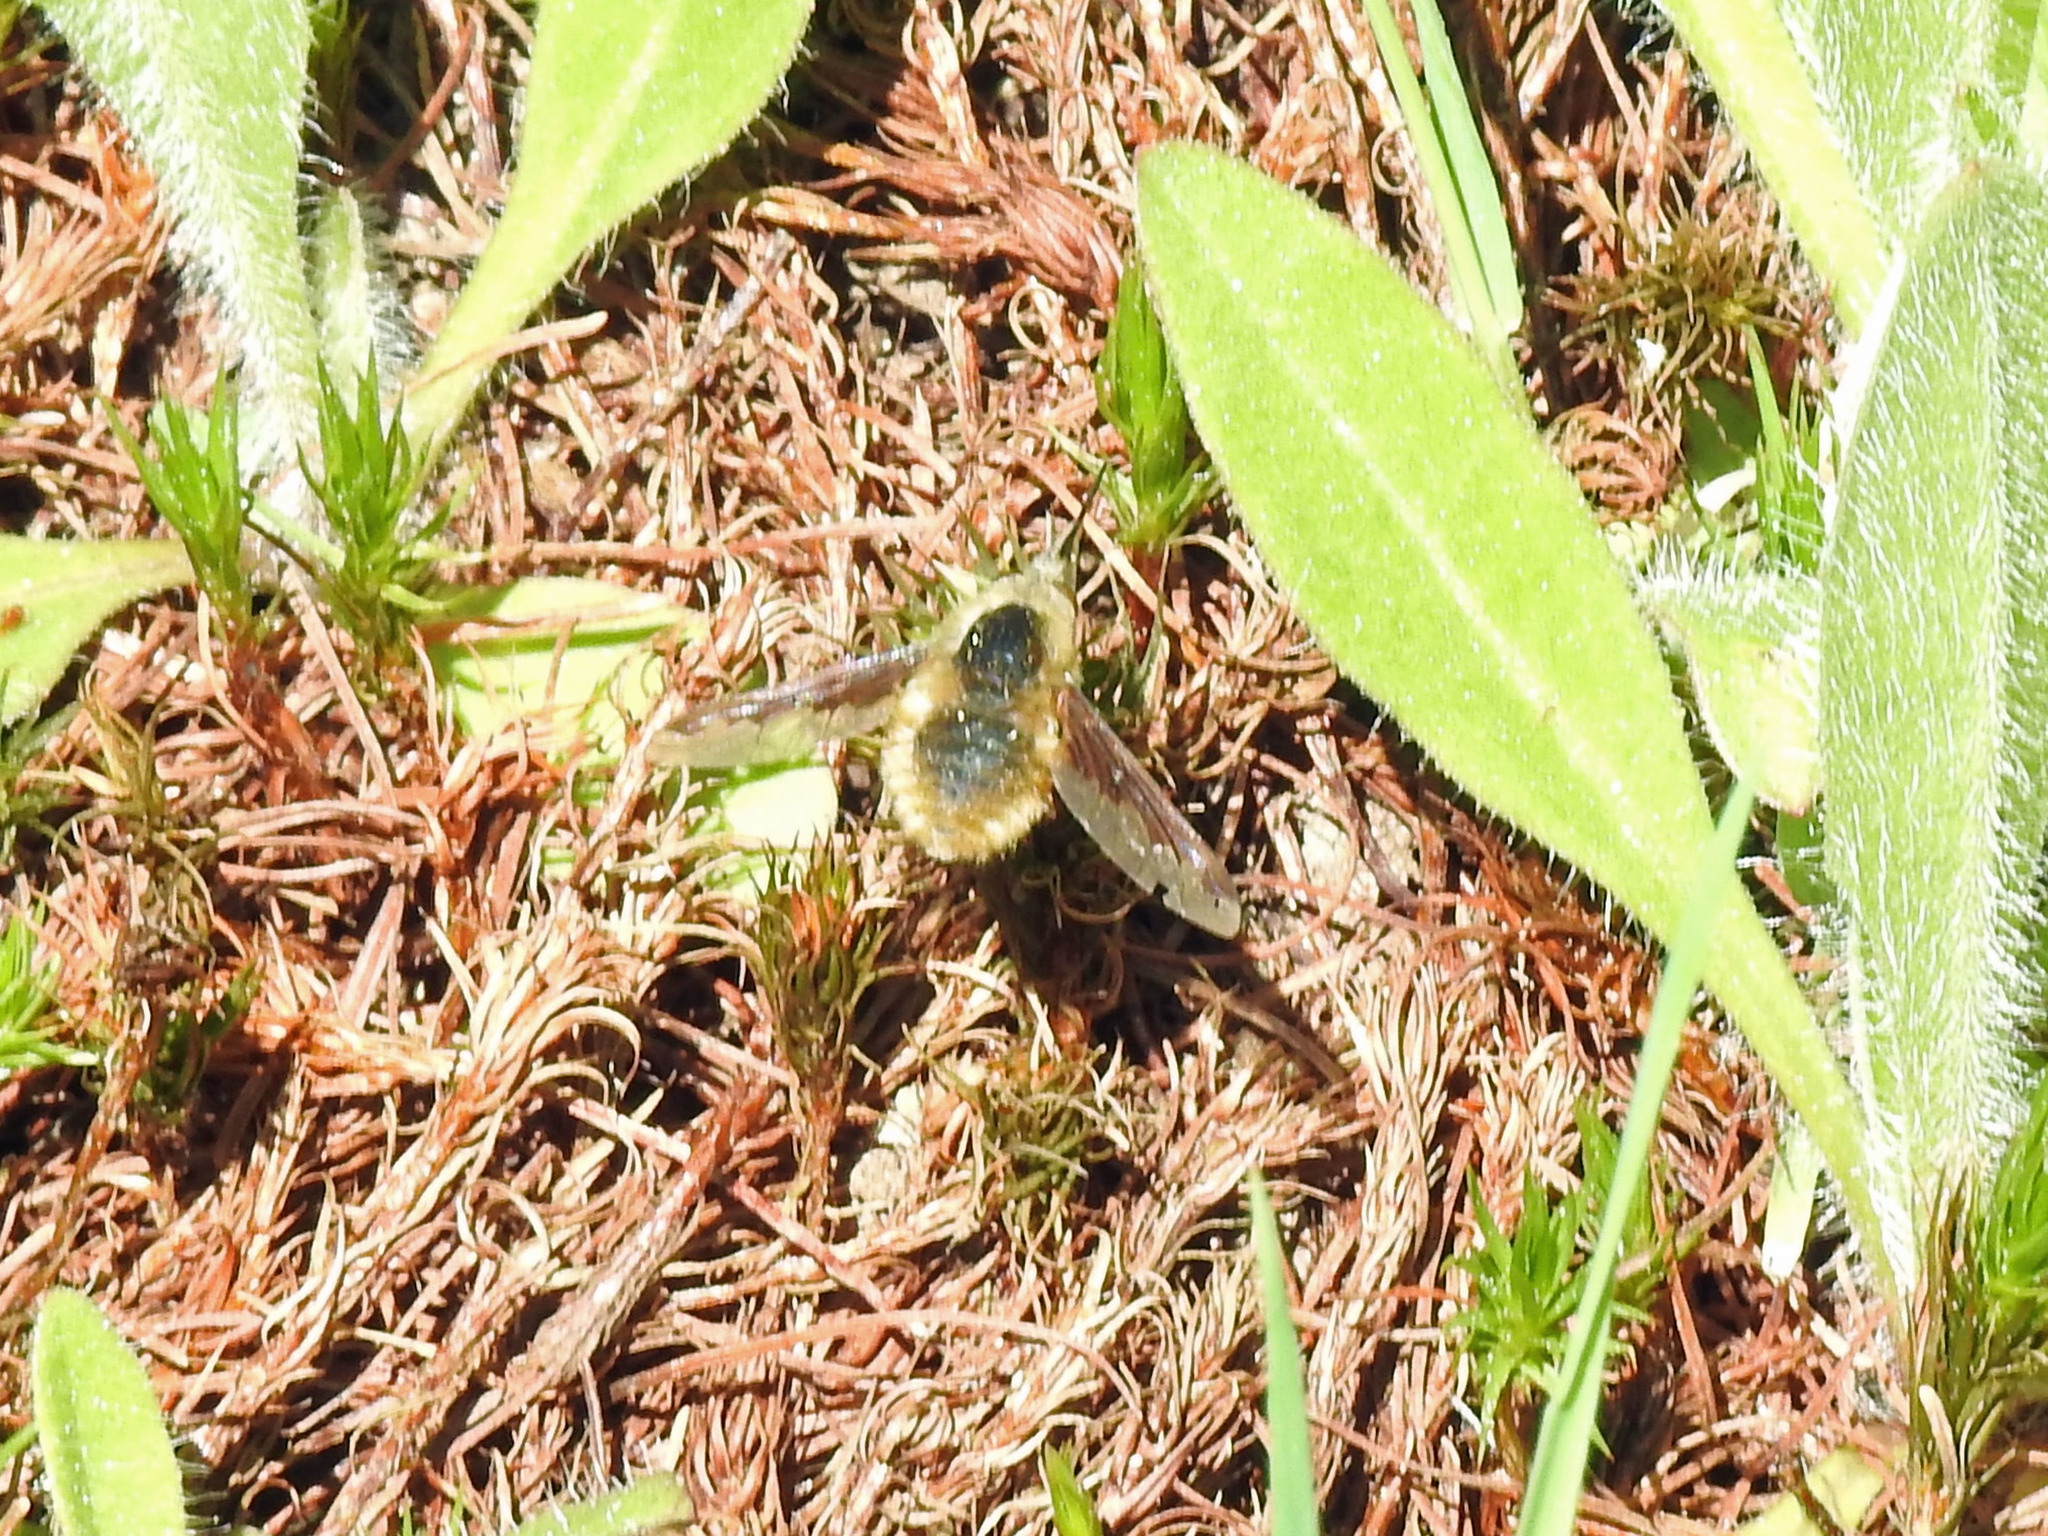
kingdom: Animalia
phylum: Arthropoda
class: Insecta
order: Diptera
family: Bombyliidae
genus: Bombylius
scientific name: Bombylius major
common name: Bee fly
